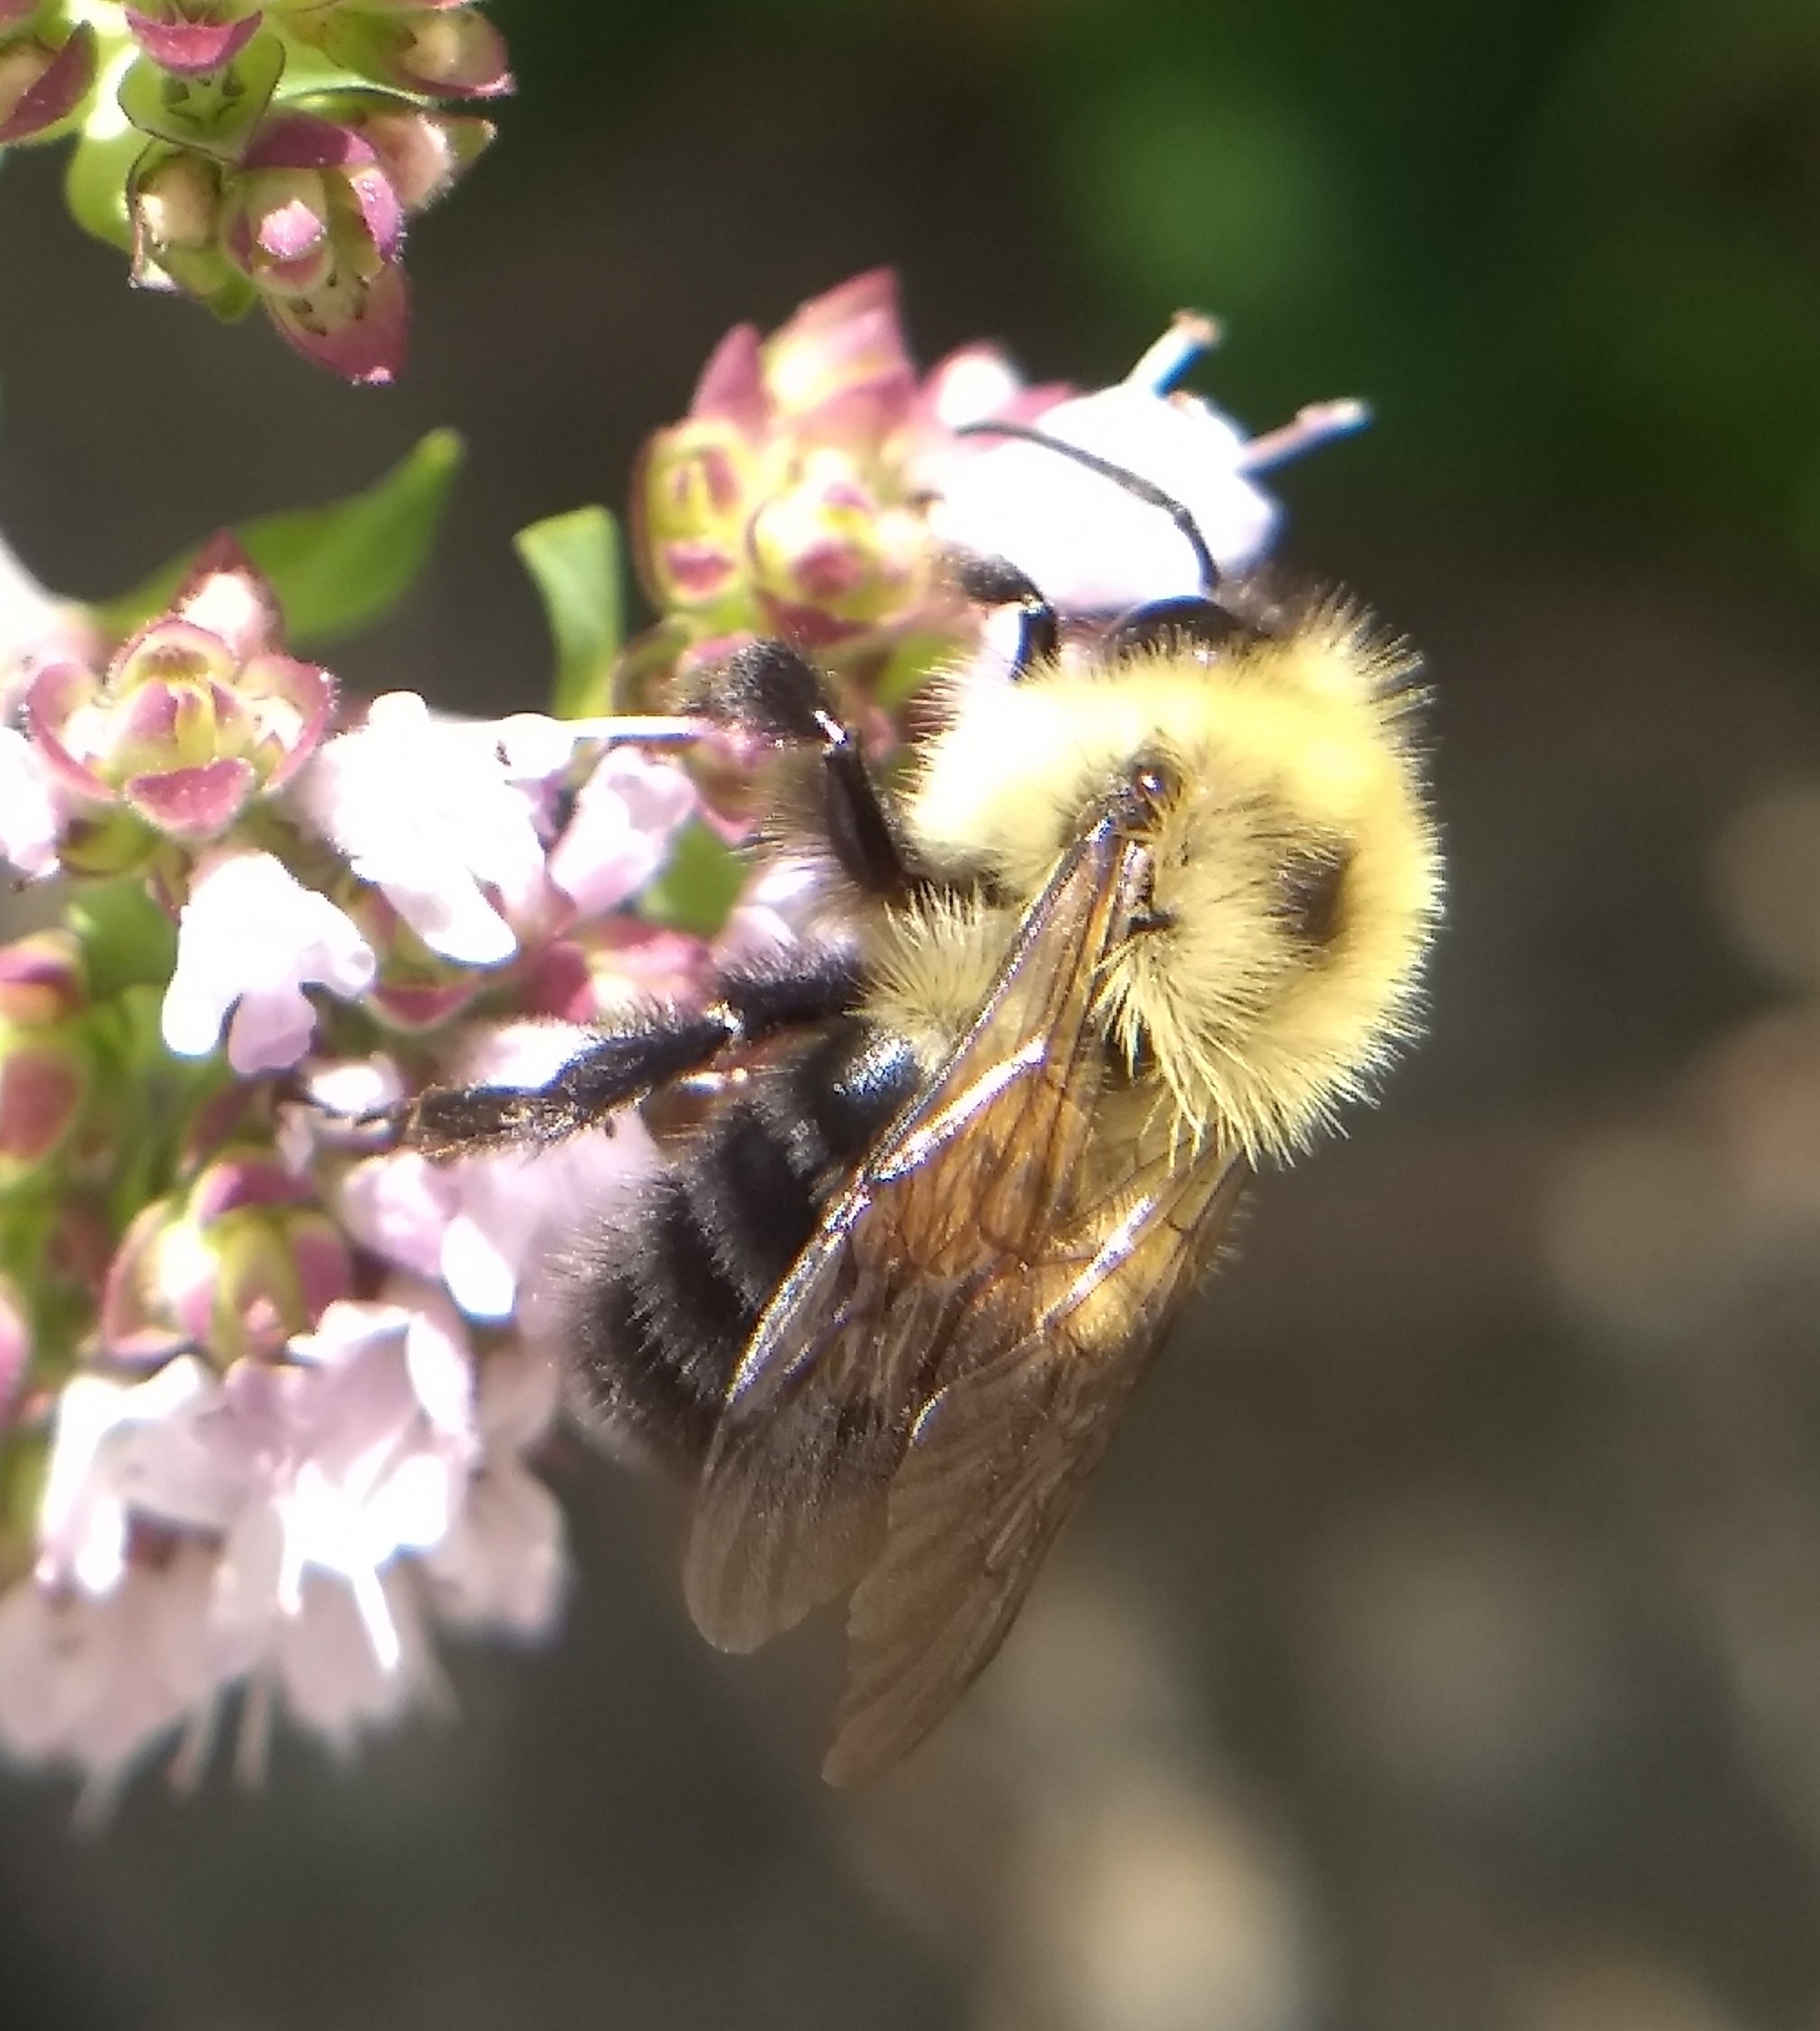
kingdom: Animalia
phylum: Arthropoda
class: Insecta
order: Hymenoptera
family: Apidae
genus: Bombus
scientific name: Bombus bimaculatus
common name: Two-spotted bumble bee
